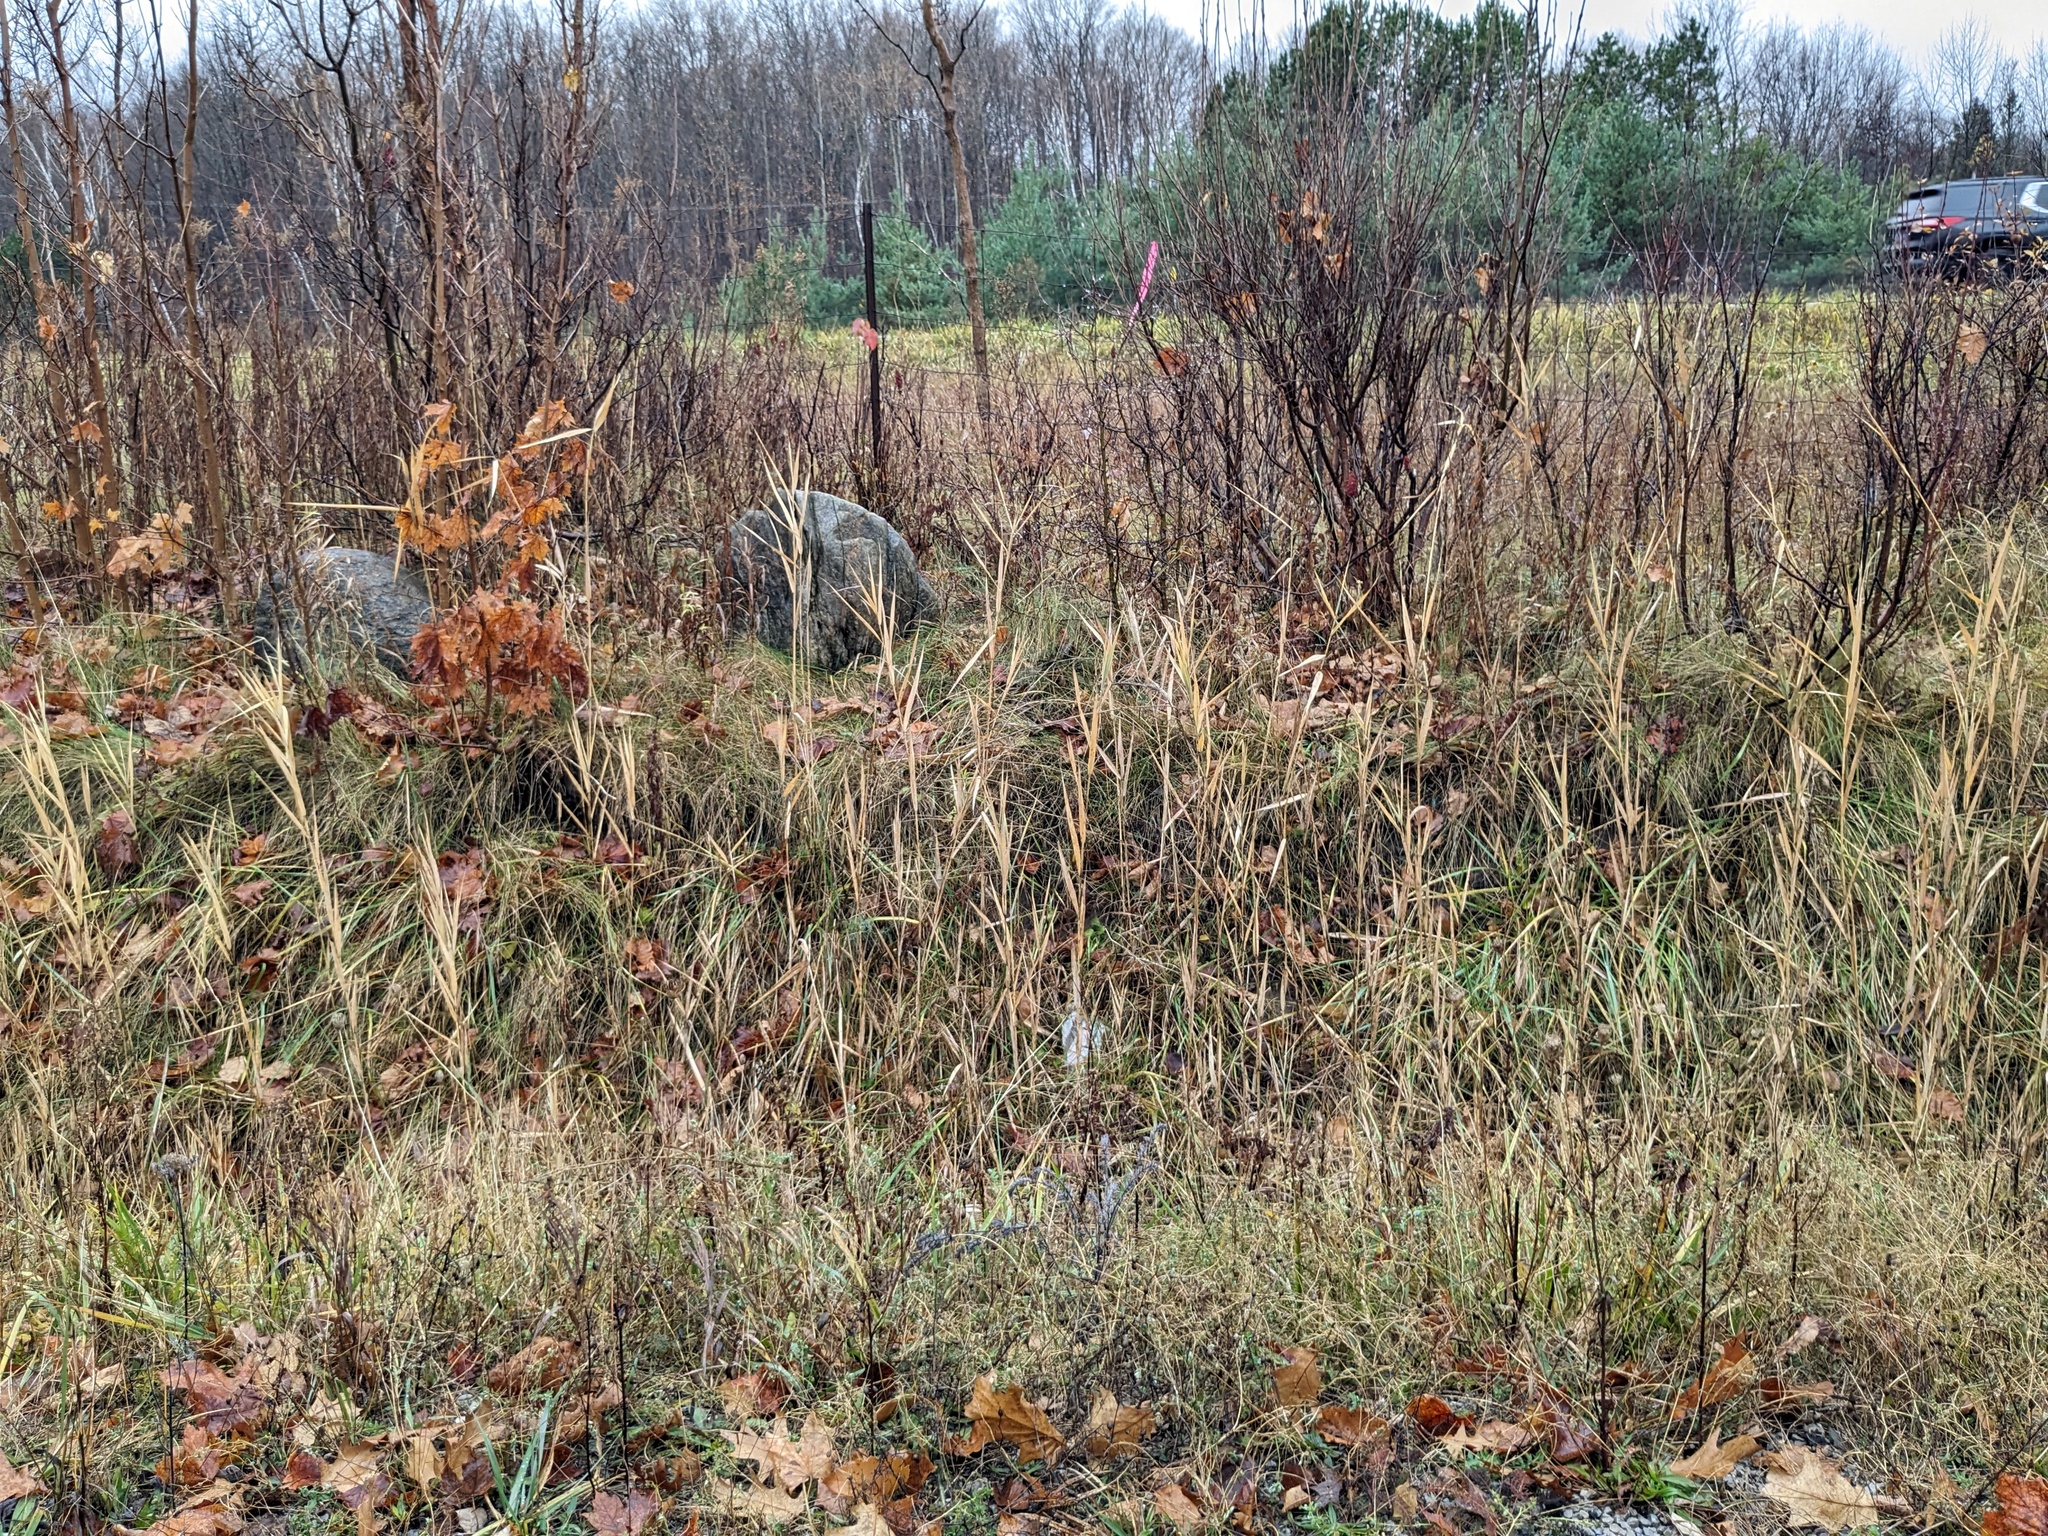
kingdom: Plantae
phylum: Tracheophyta
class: Liliopsida
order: Poales
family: Poaceae
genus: Phragmites
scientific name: Phragmites australis
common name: Common reed
